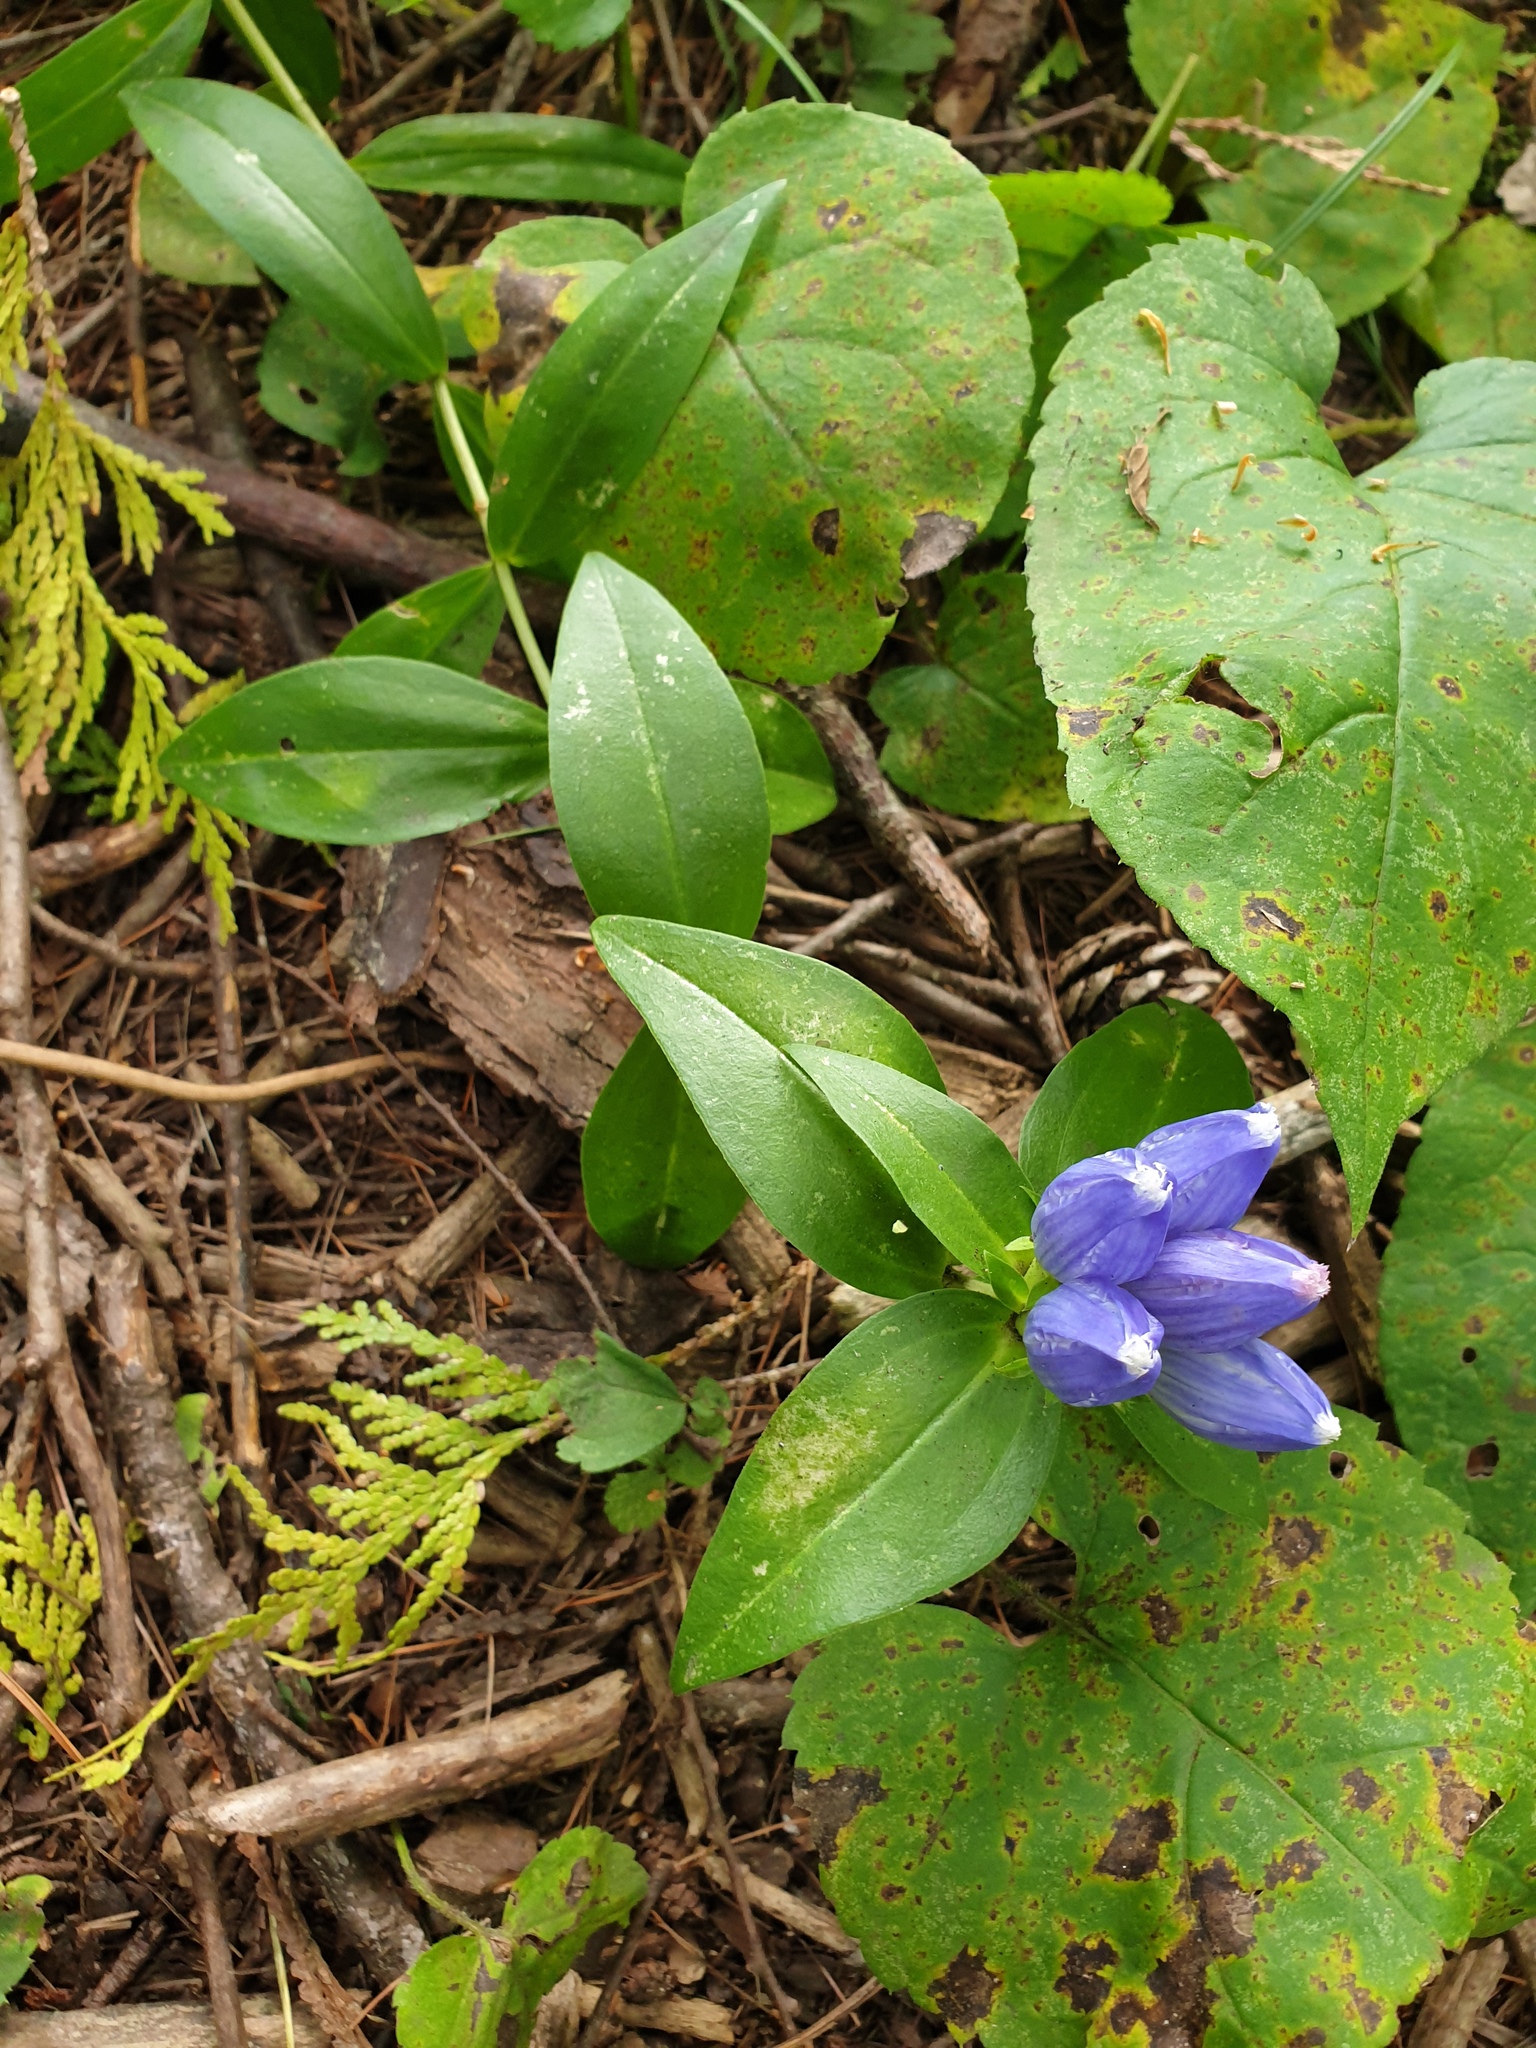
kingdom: Plantae
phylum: Tracheophyta
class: Magnoliopsida
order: Gentianales
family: Gentianaceae
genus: Gentiana
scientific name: Gentiana andrewsii
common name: Bottle gentian
